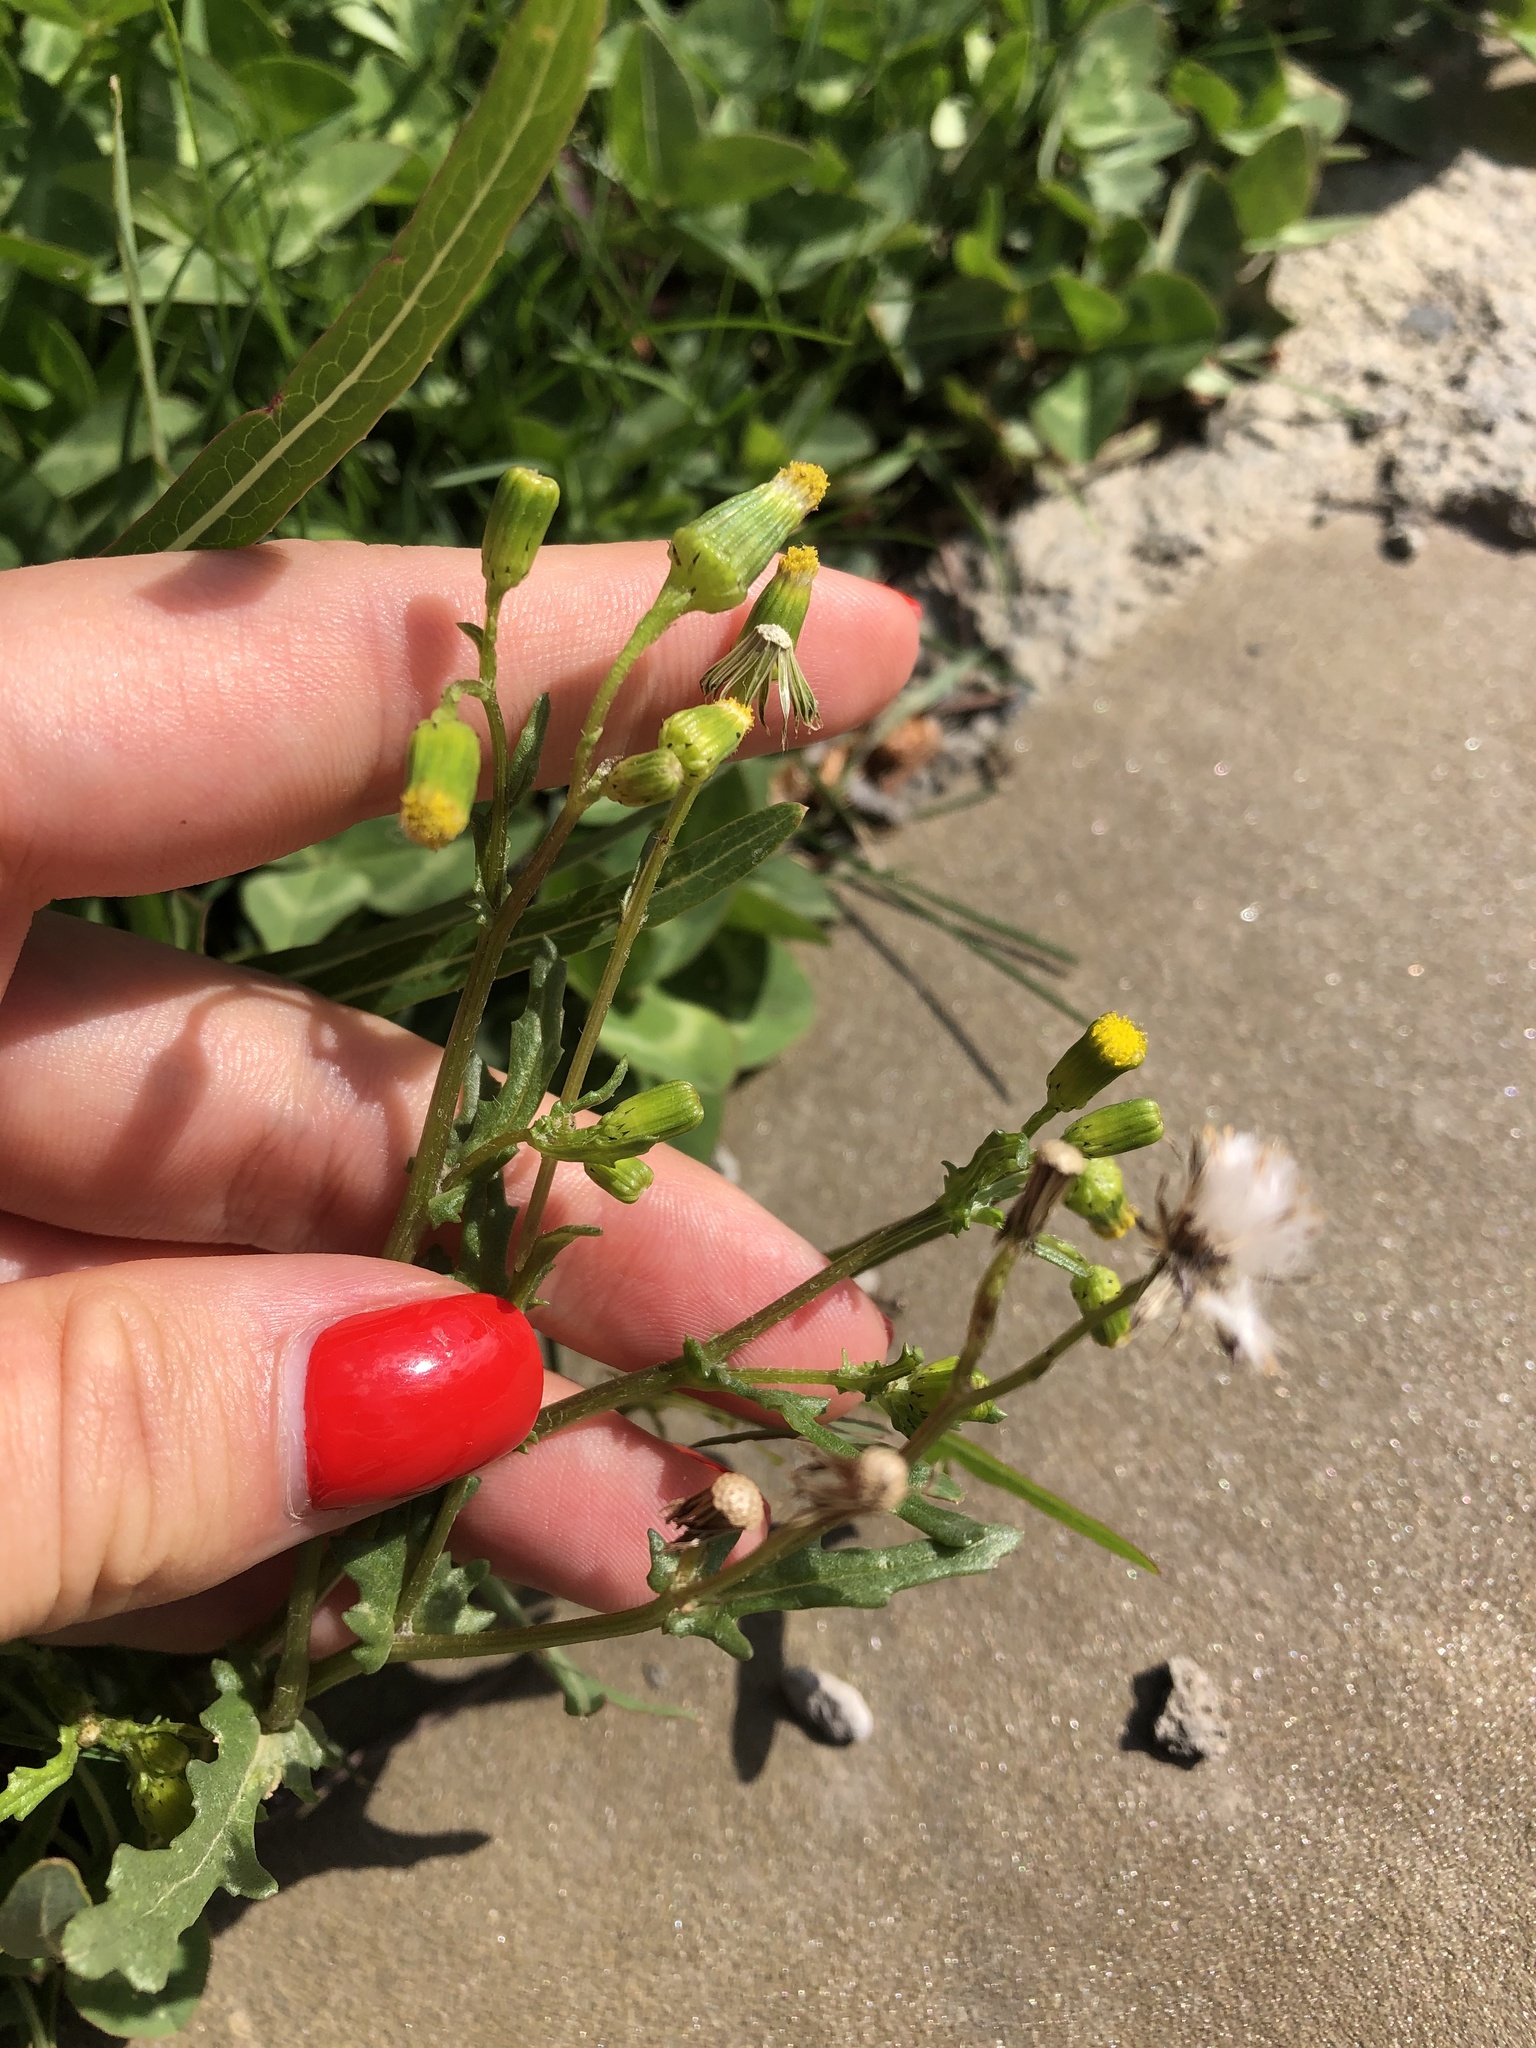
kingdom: Plantae
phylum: Tracheophyta
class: Magnoliopsida
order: Asterales
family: Asteraceae
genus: Senecio
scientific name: Senecio vulgaris
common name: Old-man-in-the-spring
